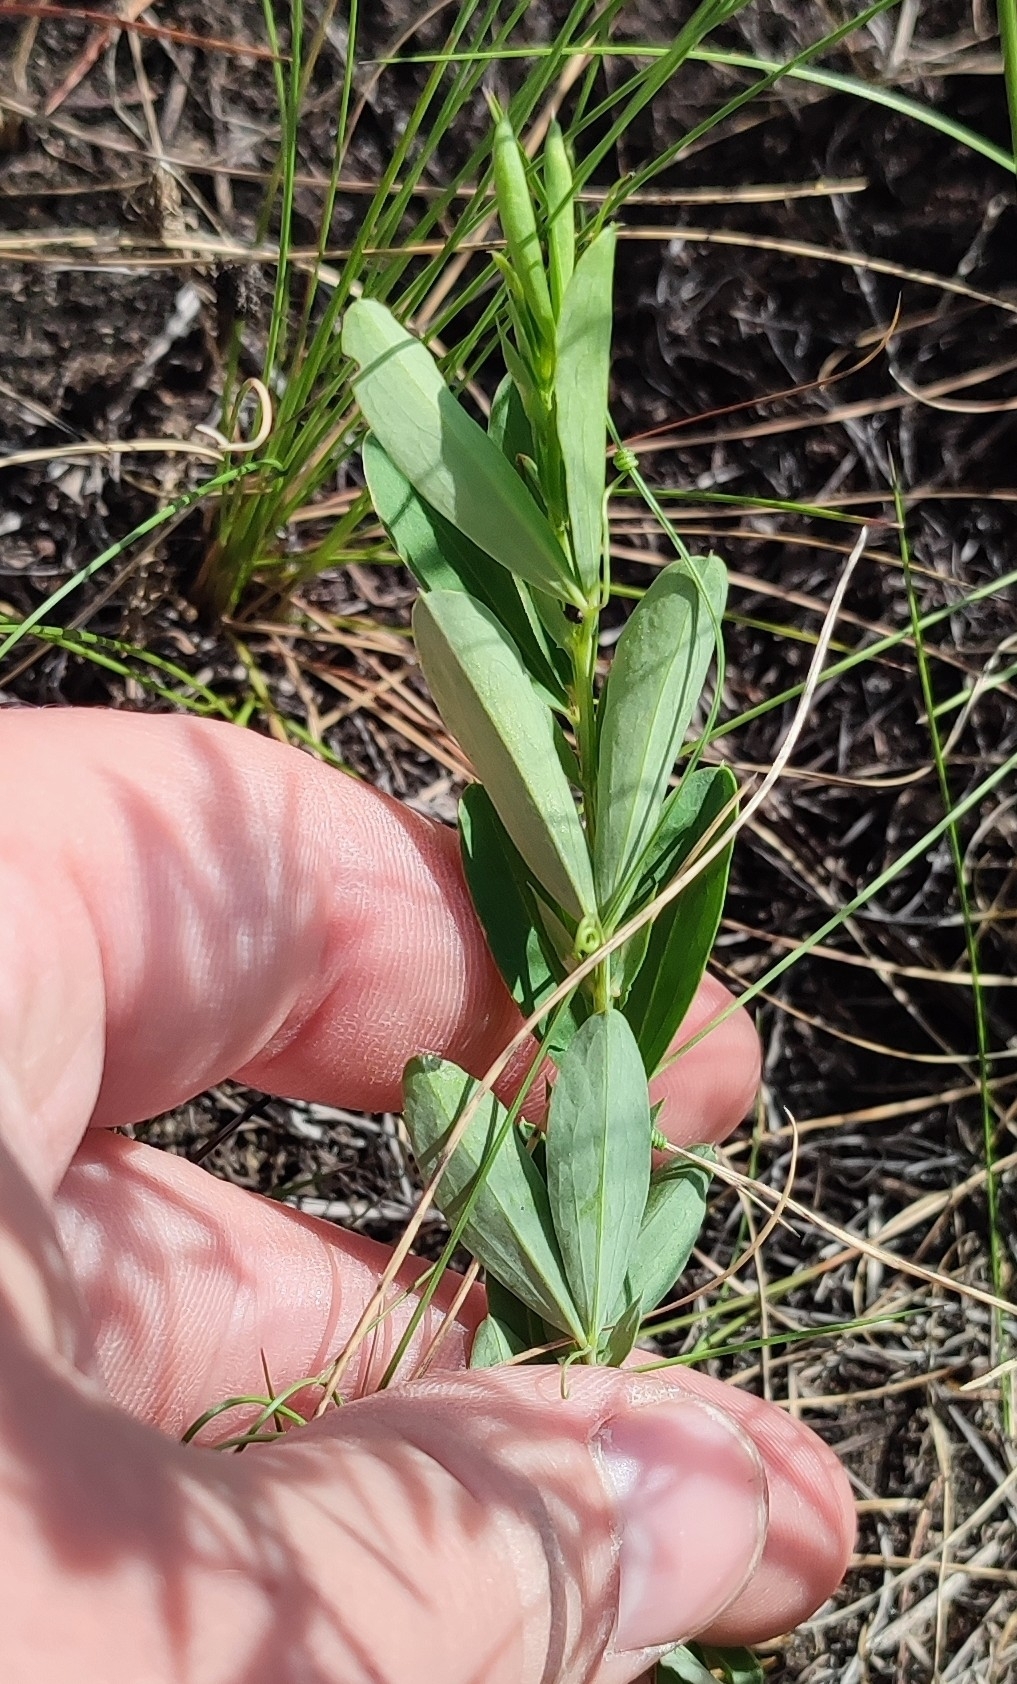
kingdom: Plantae
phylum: Tracheophyta
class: Magnoliopsida
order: Fabales
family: Fabaceae
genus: Lathyrus
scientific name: Lathyrus tuberosus
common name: Tuberous pea
